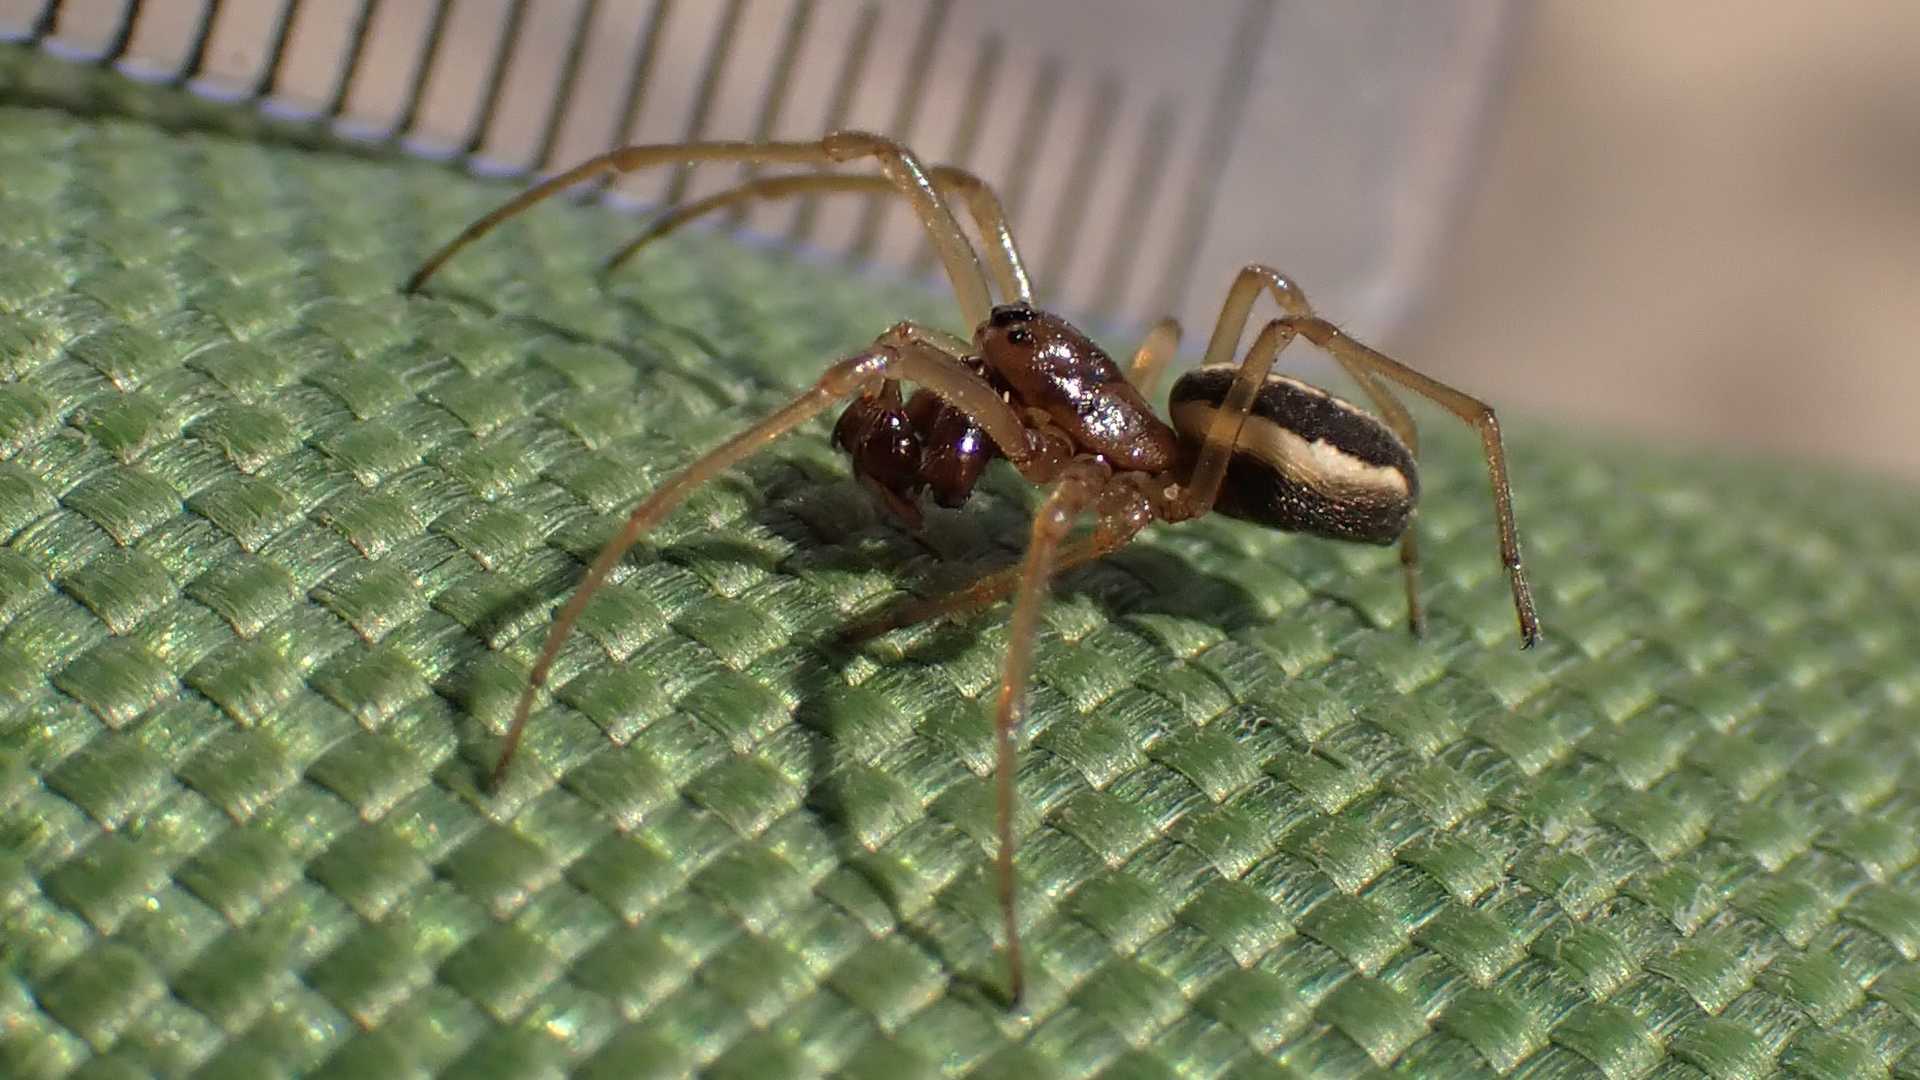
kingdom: Animalia
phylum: Arthropoda
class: Arachnida
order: Araneae
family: Tetragnathidae
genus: Pachygnatha
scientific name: Pachygnatha clercki
